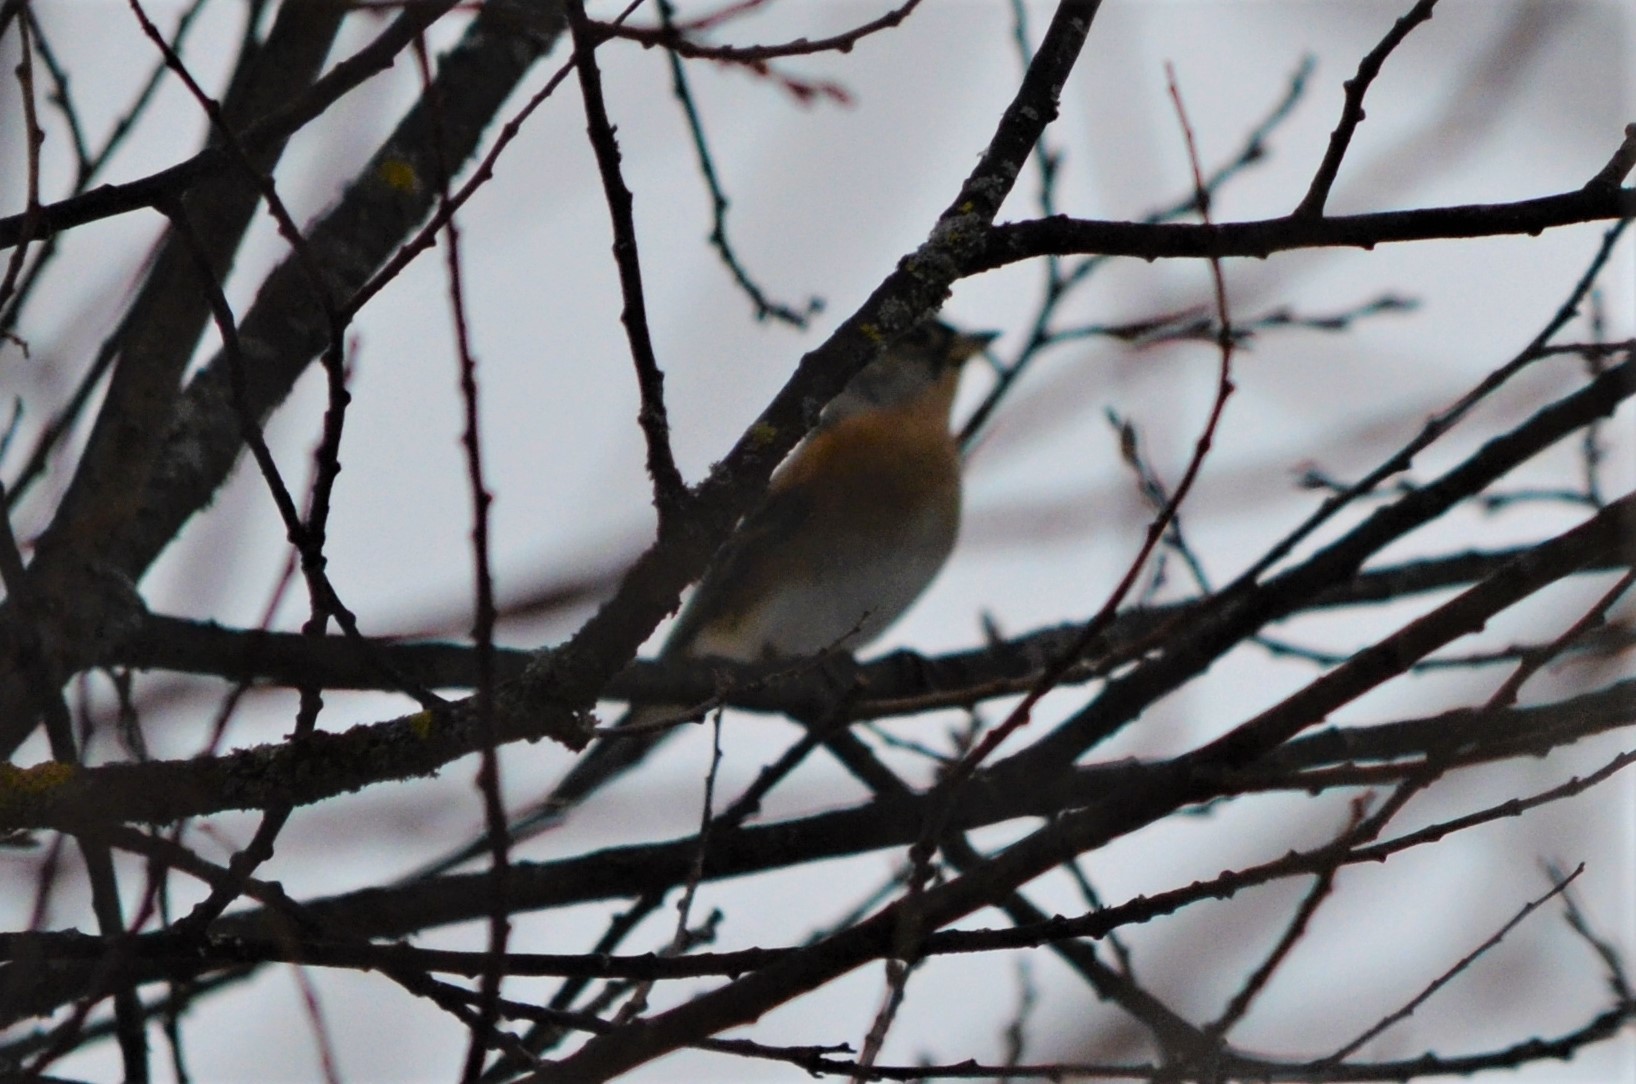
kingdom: Animalia
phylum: Chordata
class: Aves
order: Passeriformes
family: Fringillidae
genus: Fringilla
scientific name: Fringilla montifringilla
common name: Brambling
